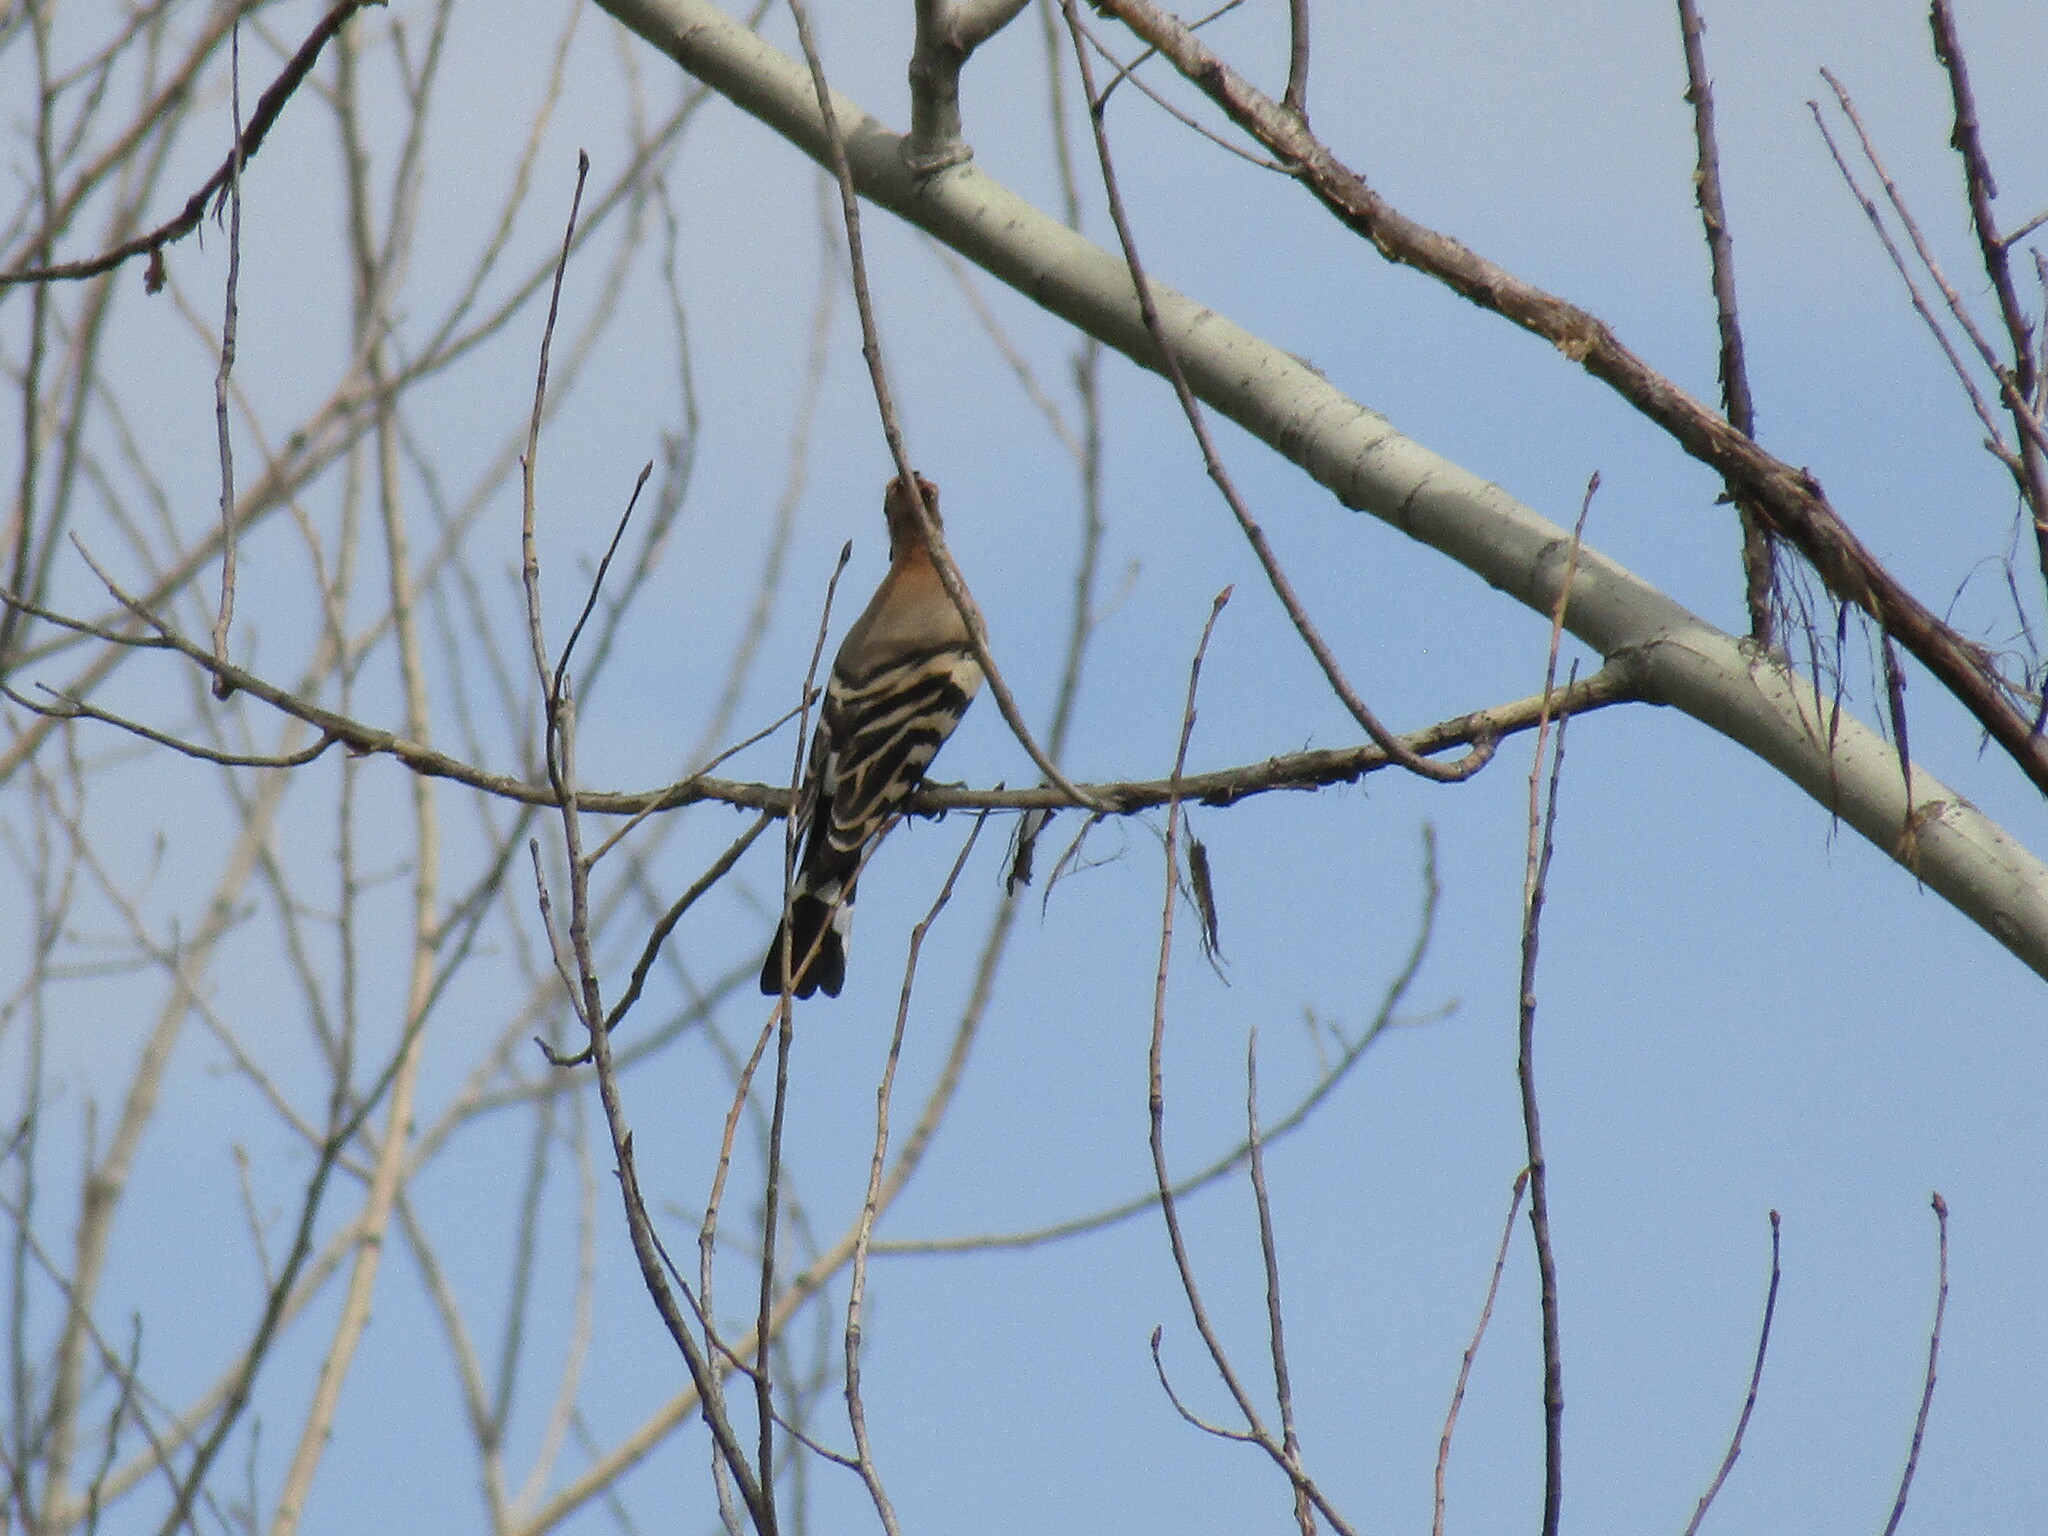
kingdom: Animalia
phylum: Chordata
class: Aves
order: Bucerotiformes
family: Upupidae
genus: Upupa
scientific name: Upupa epops
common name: Eurasian hoopoe
